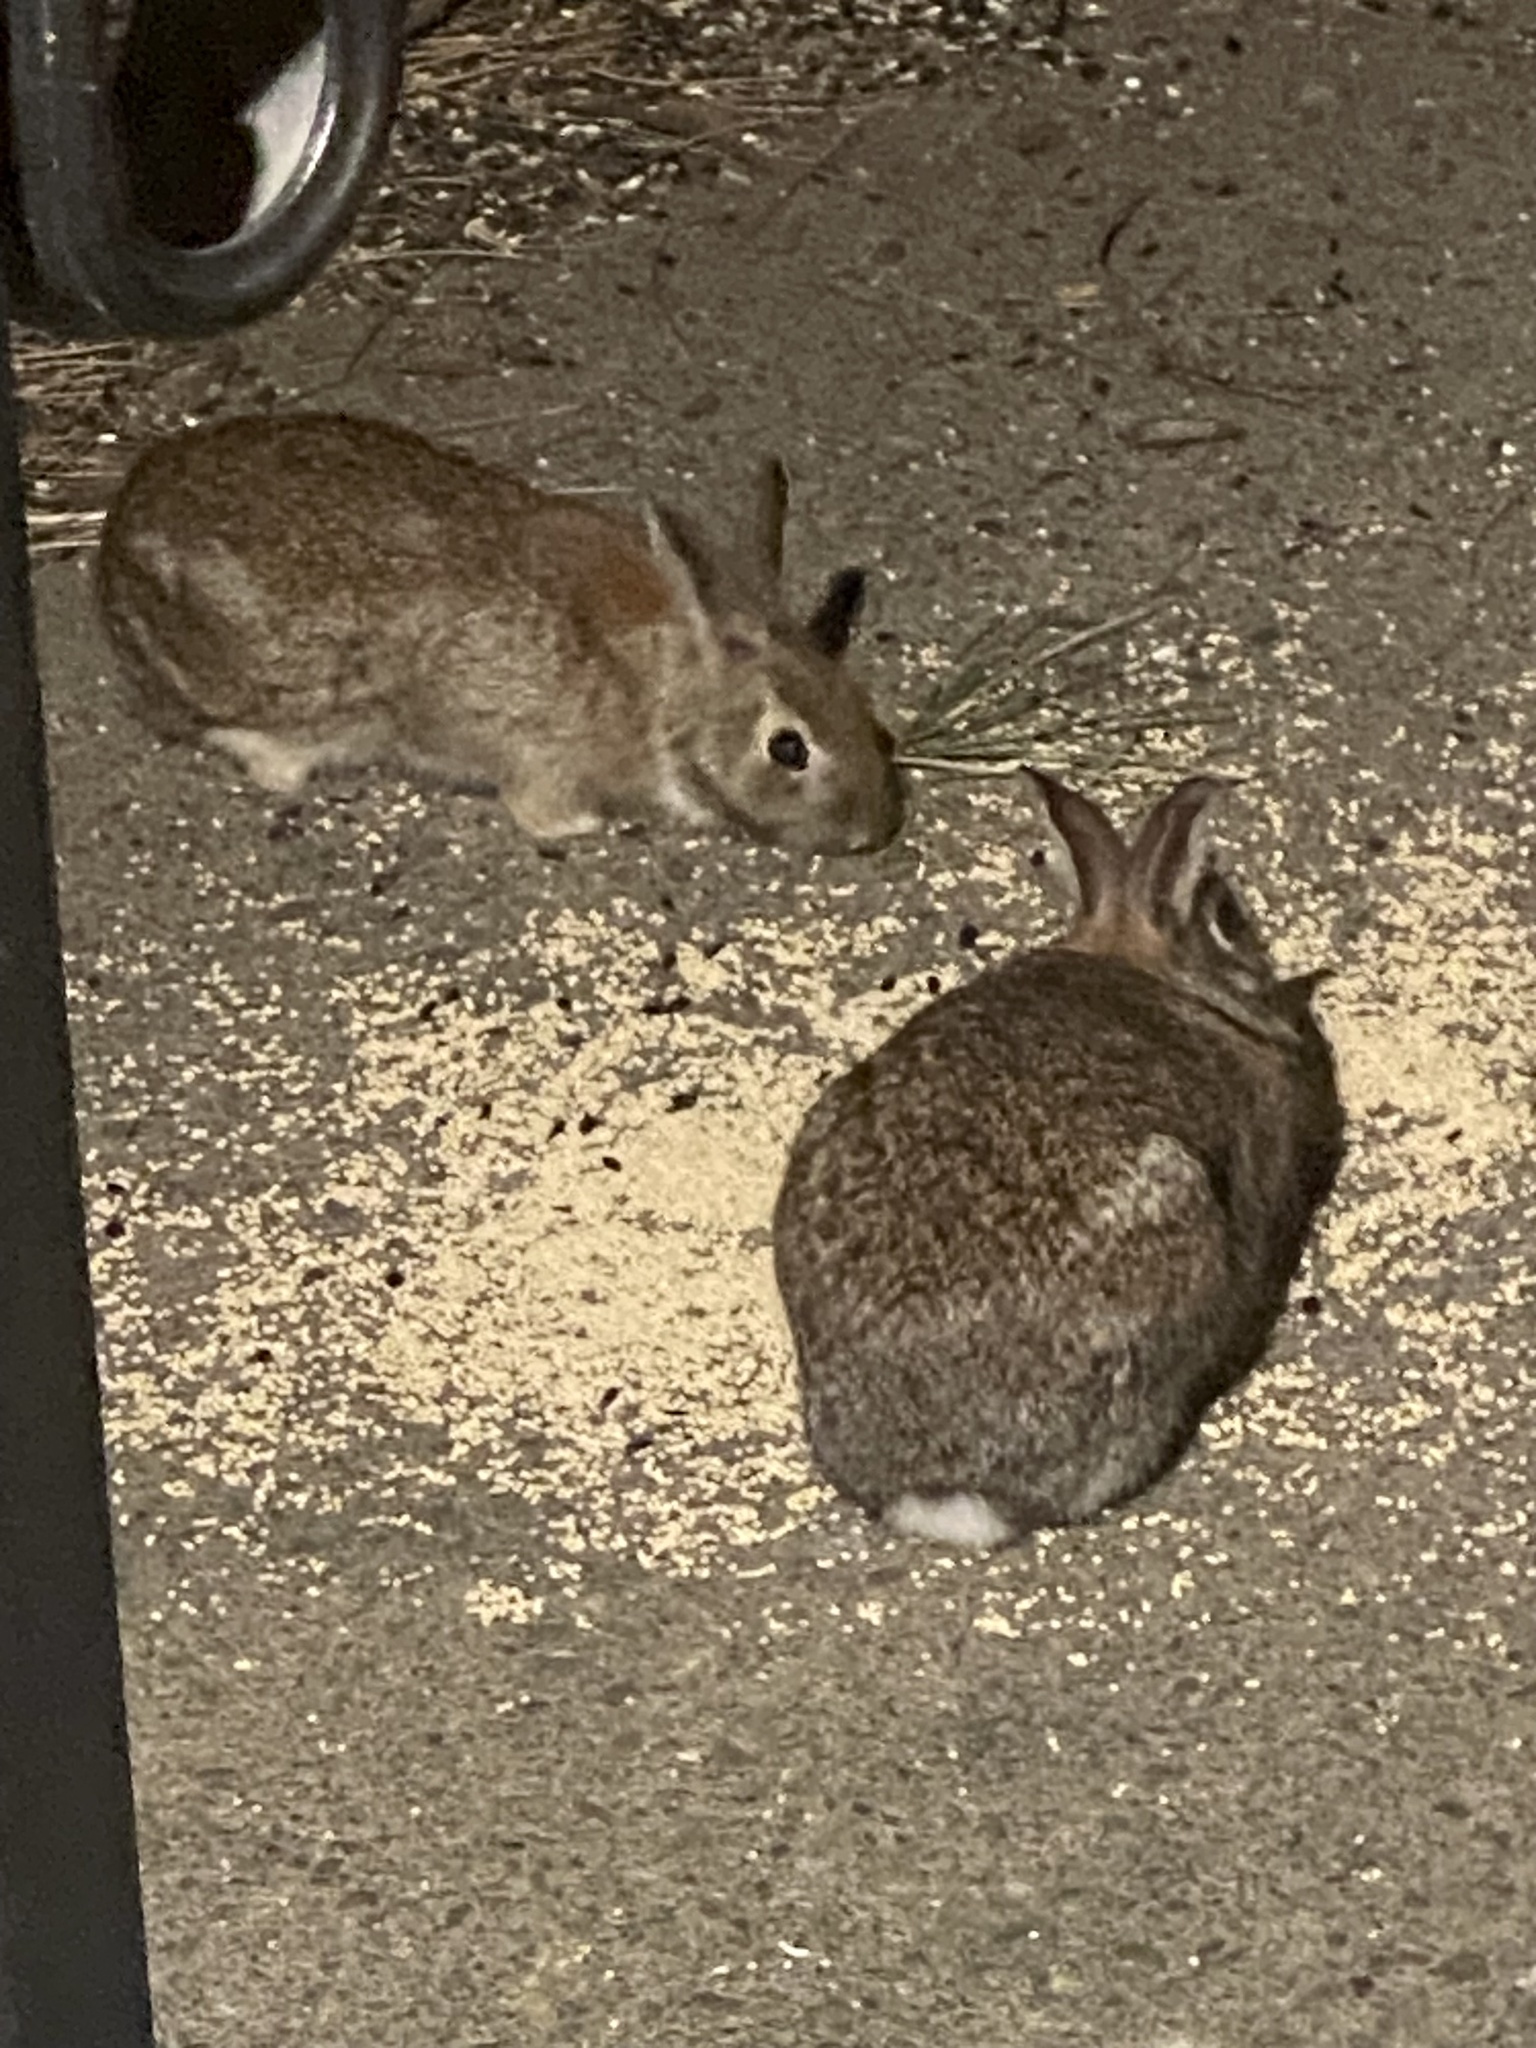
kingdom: Animalia
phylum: Chordata
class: Mammalia
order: Lagomorpha
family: Leporidae
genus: Sylvilagus
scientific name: Sylvilagus floridanus
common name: Eastern cottontail
